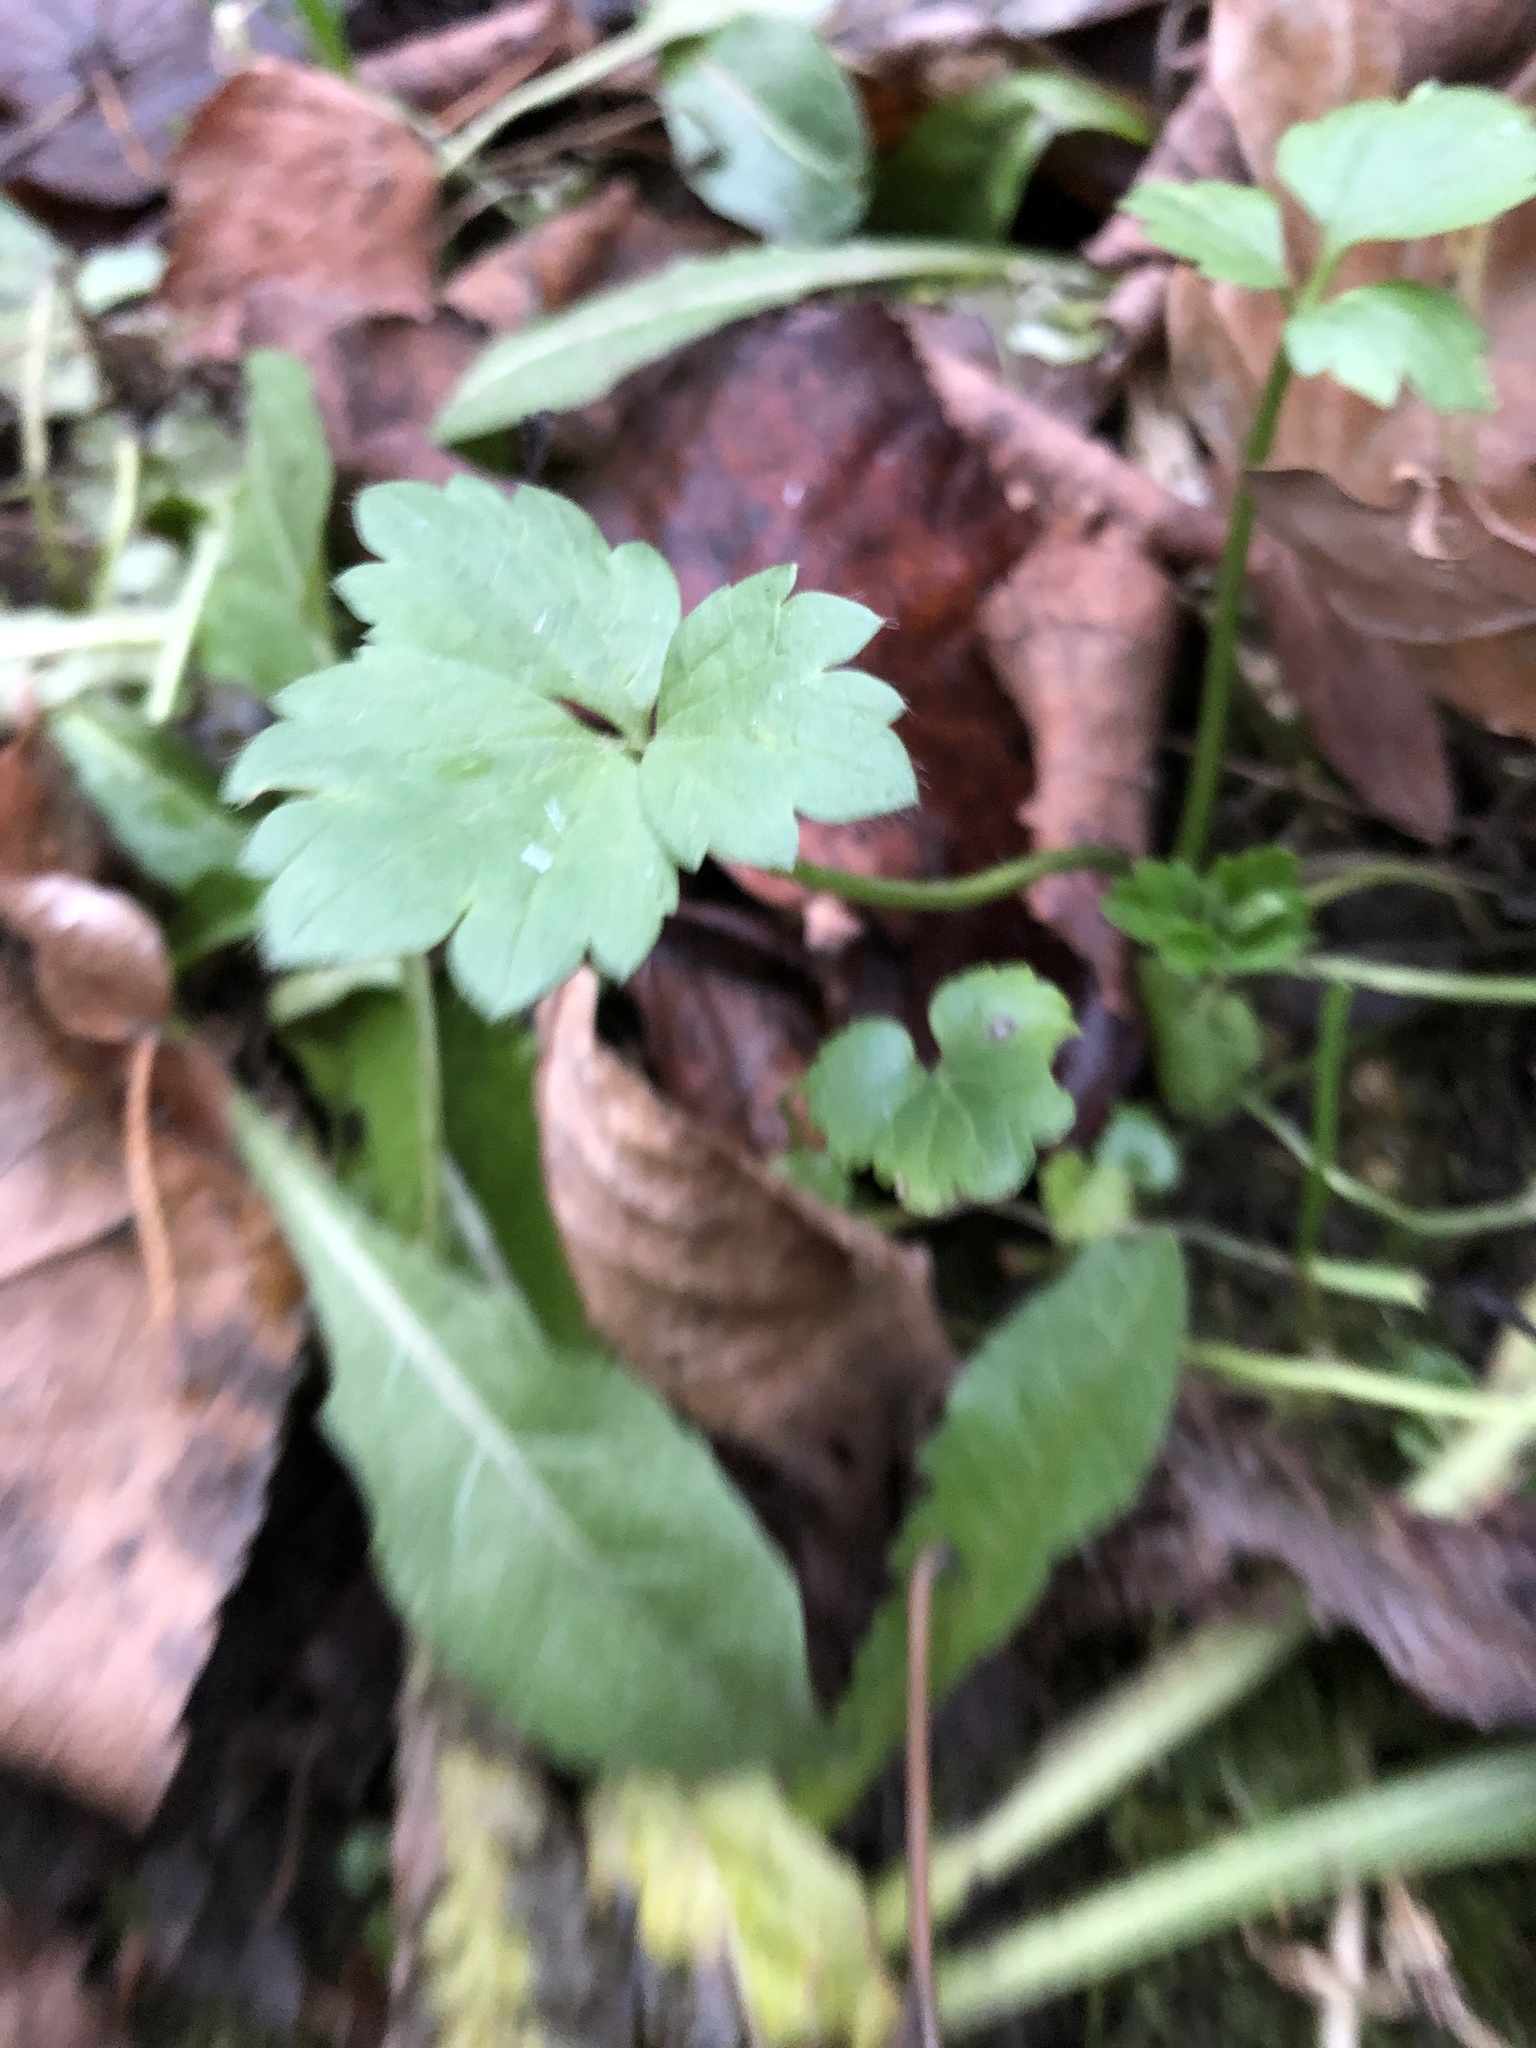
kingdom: Plantae
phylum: Tracheophyta
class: Magnoliopsida
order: Ranunculales
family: Ranunculaceae
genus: Ranunculus
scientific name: Ranunculus repens
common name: Creeping buttercup
